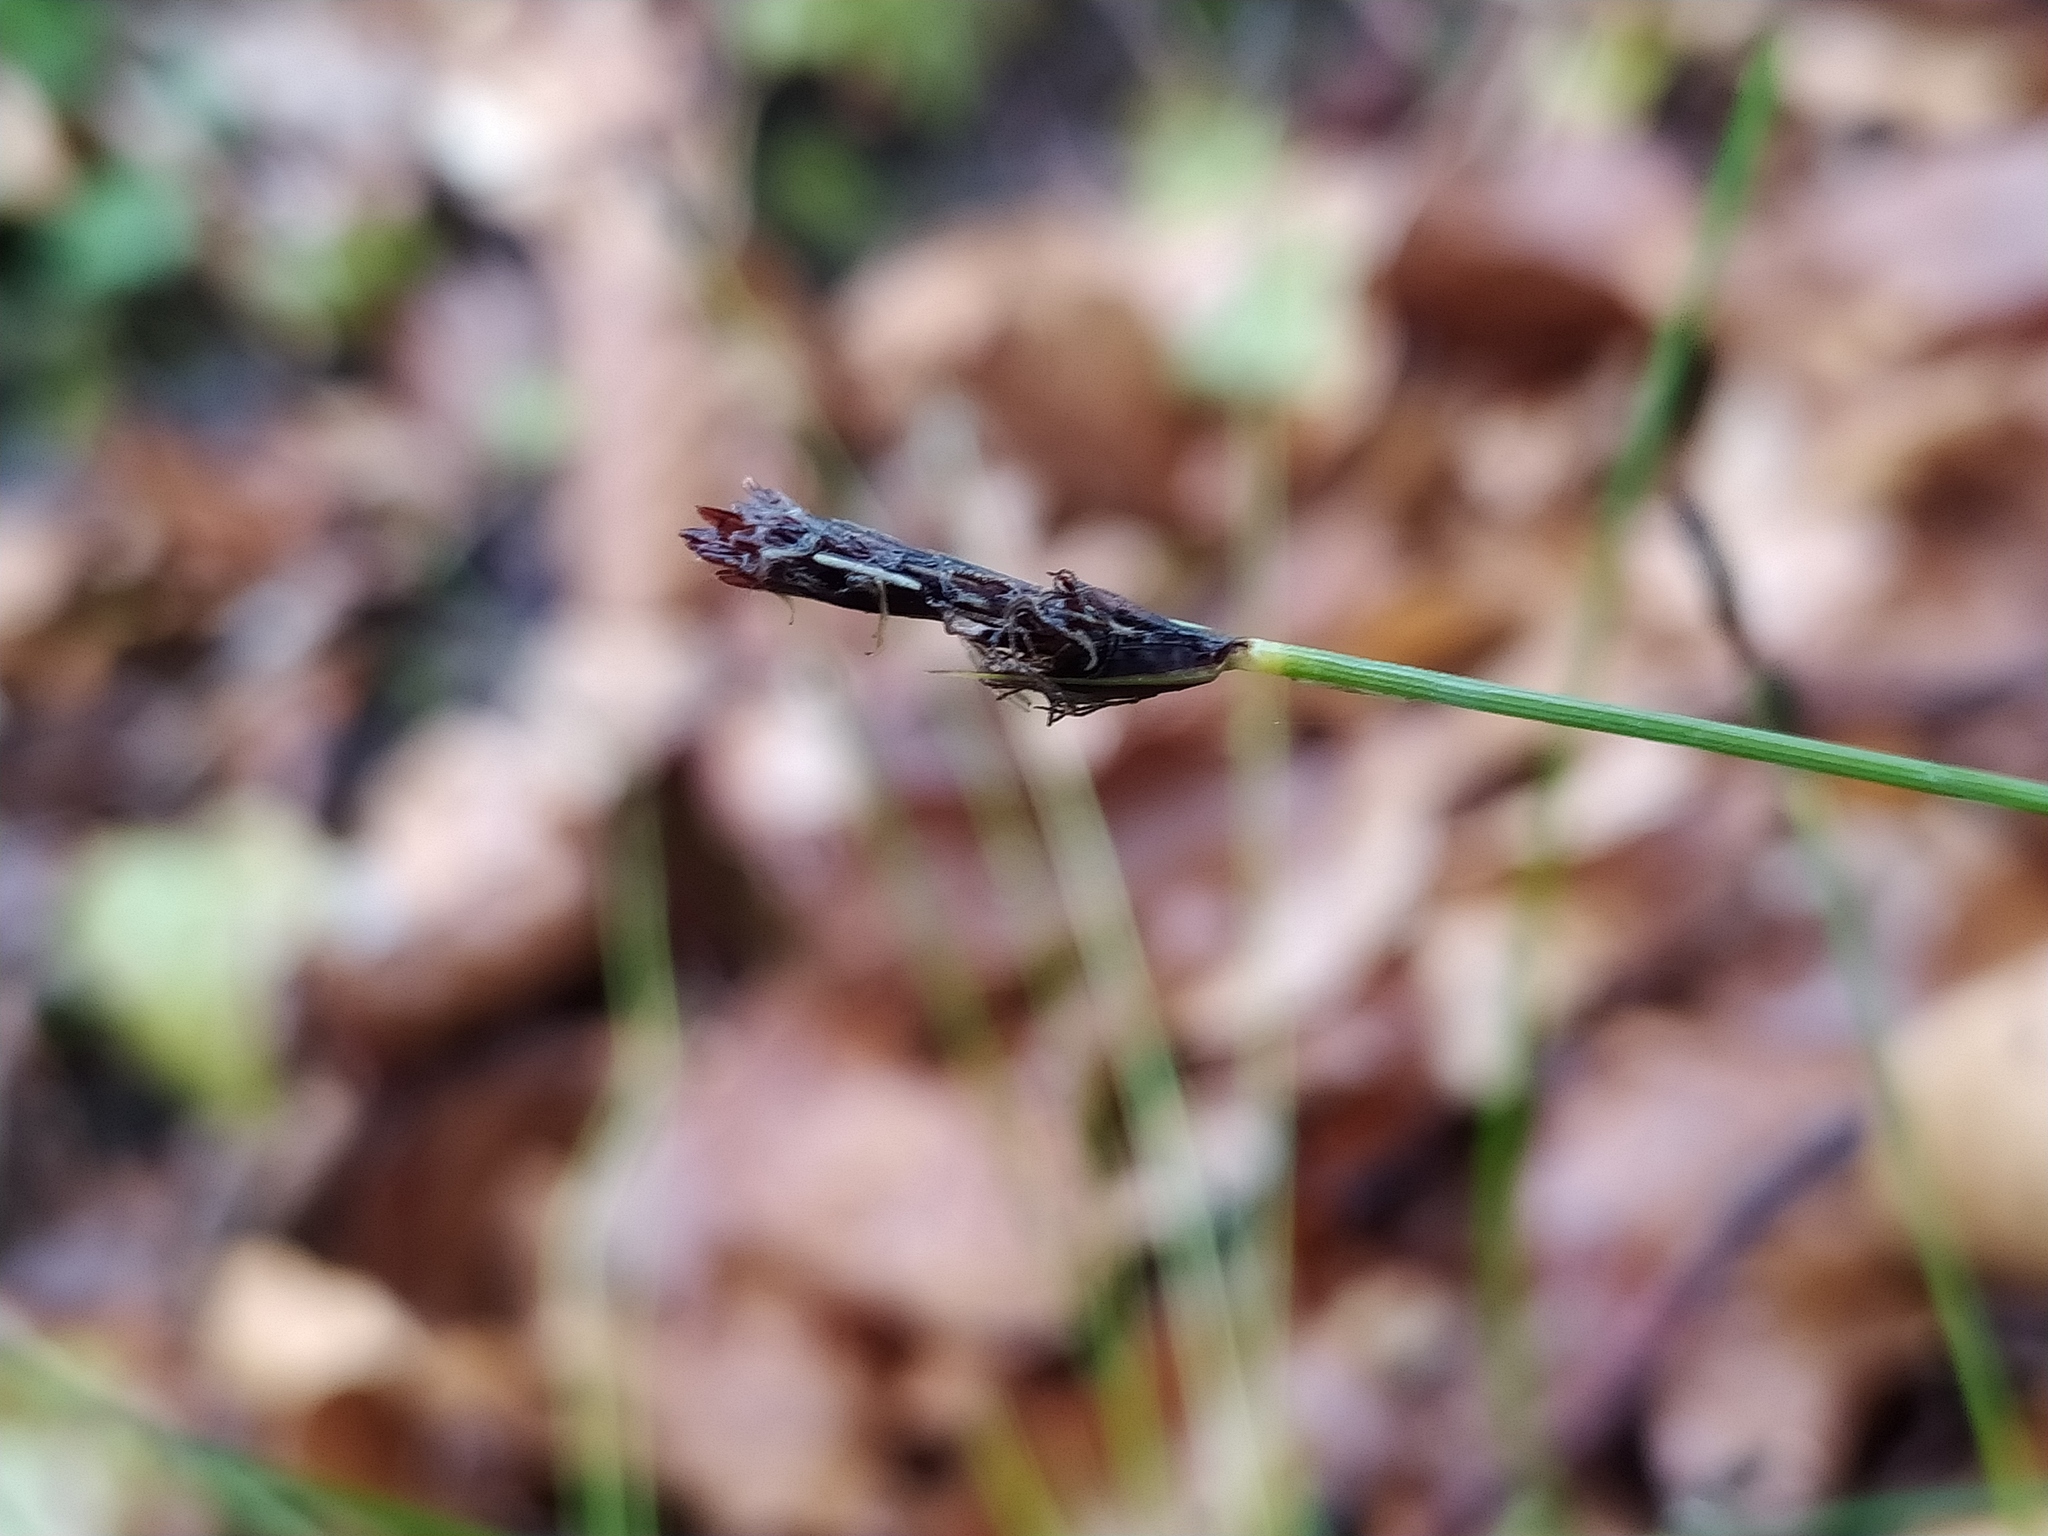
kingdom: Plantae
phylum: Tracheophyta
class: Liliopsida
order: Poales
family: Cyperaceae
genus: Carex
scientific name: Carex montana
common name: Soft-leaved sedge
